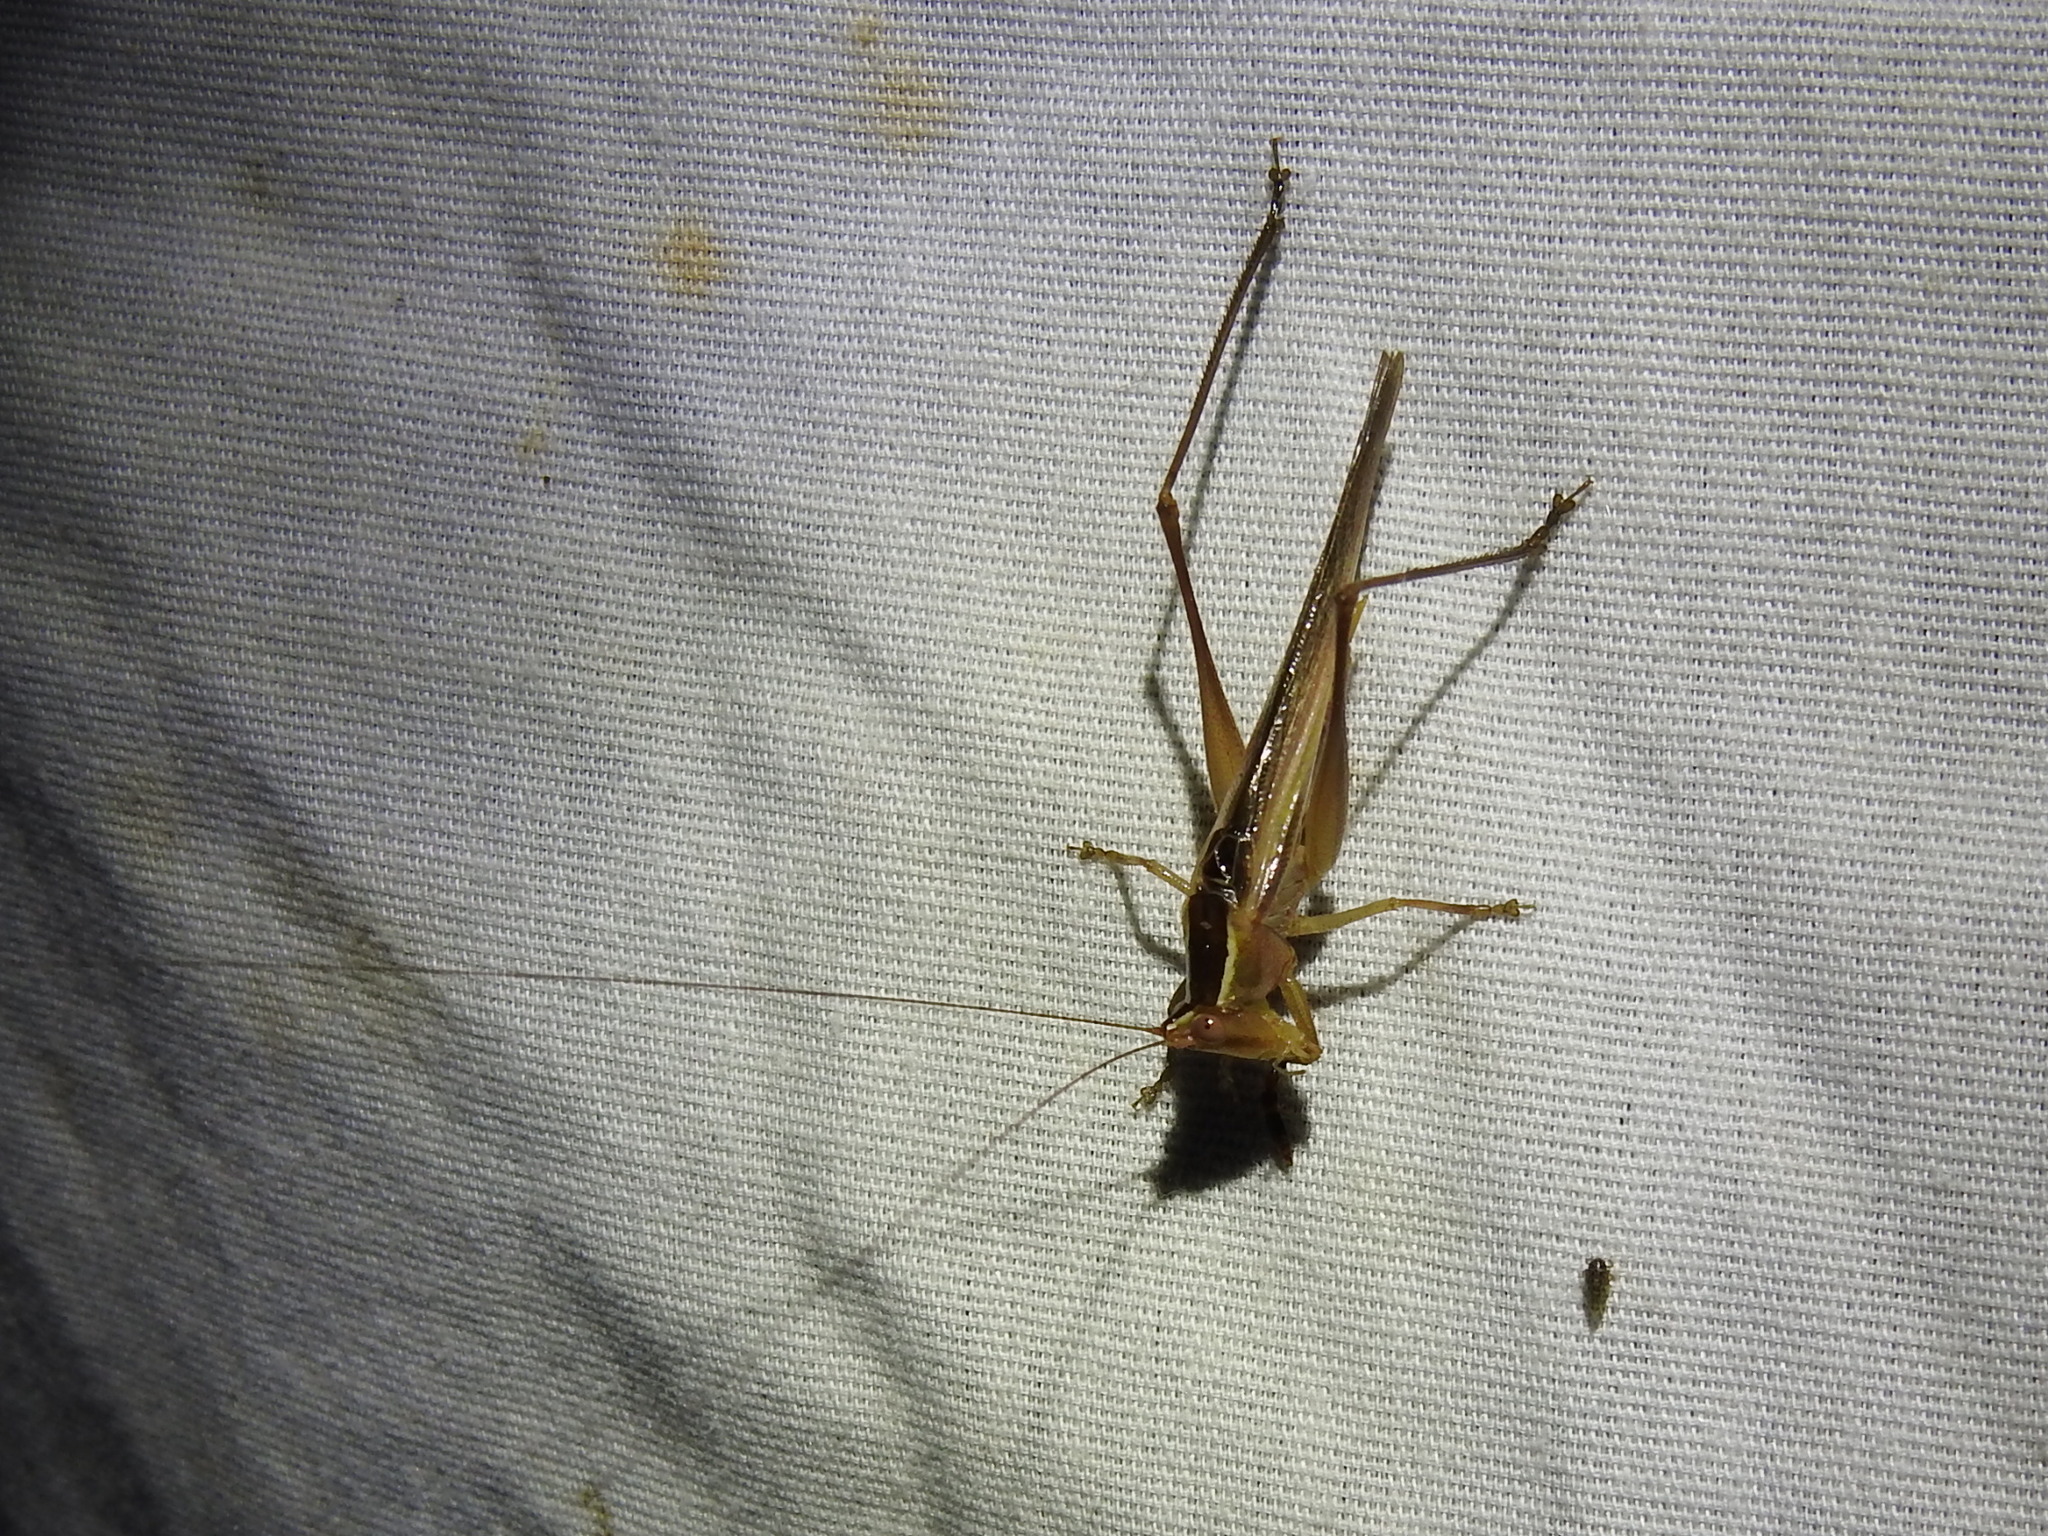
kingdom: Animalia
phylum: Arthropoda
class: Insecta
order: Orthoptera
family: Tettigoniidae
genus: Orchelimum
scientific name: Orchelimum unispina
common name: Arizona meadow katydid
